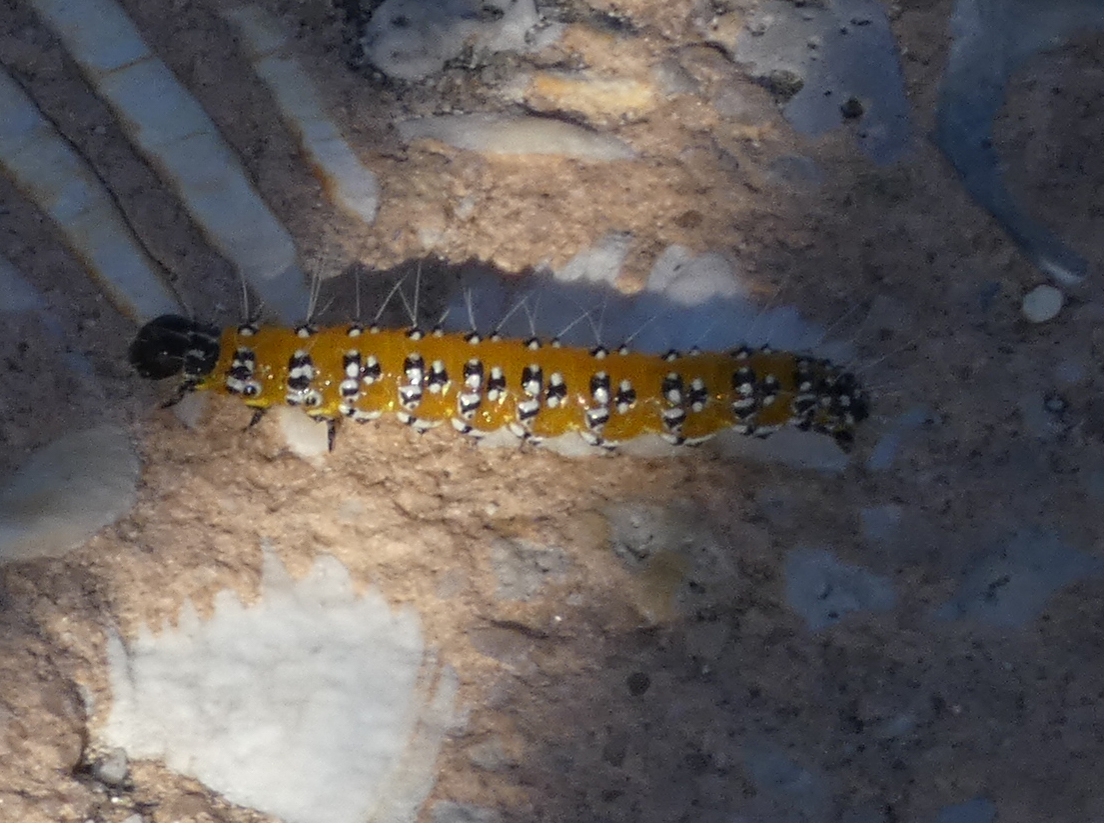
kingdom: Animalia
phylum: Arthropoda
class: Insecta
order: Lepidoptera
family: Crambidae
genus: Uresiphita
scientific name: Uresiphita reversalis
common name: Genista broom moth
